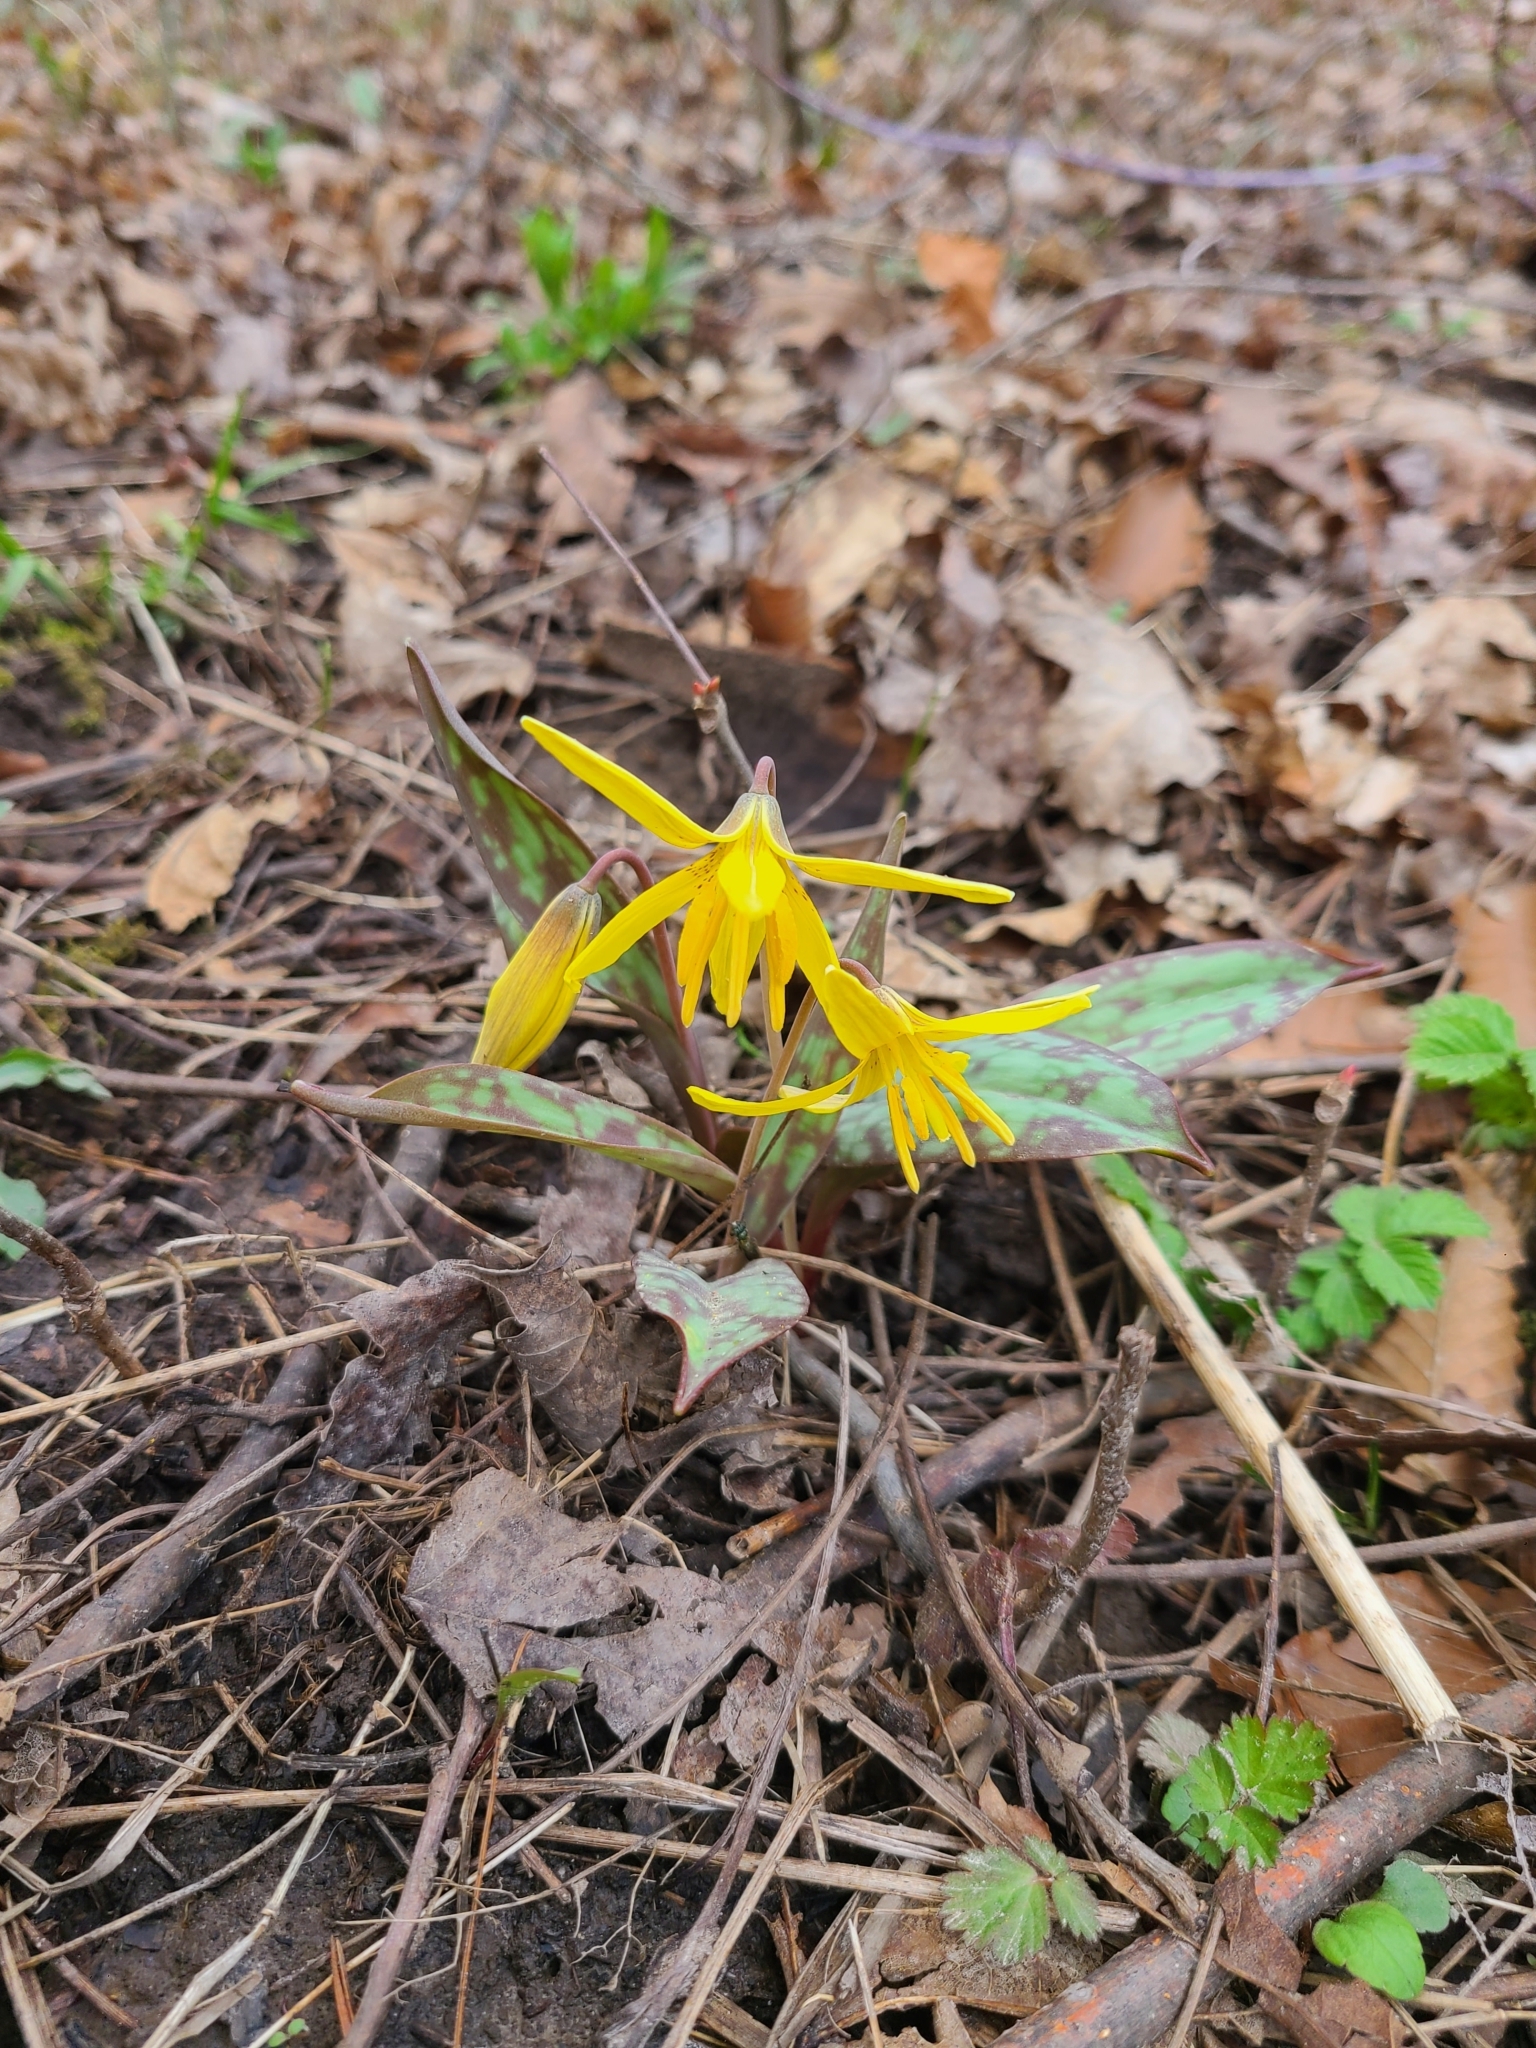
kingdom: Plantae
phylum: Tracheophyta
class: Liliopsida
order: Liliales
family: Liliaceae
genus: Erythronium
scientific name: Erythronium americanum
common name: Yellow adder's-tongue
